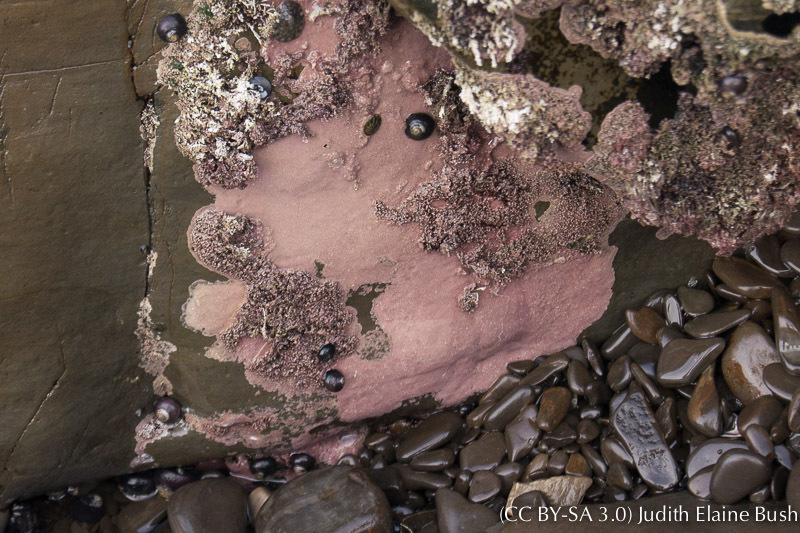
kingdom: Animalia
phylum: Mollusca
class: Gastropoda
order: Trochida
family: Tegulidae
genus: Tegula
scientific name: Tegula funebralis
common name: Black tegula
